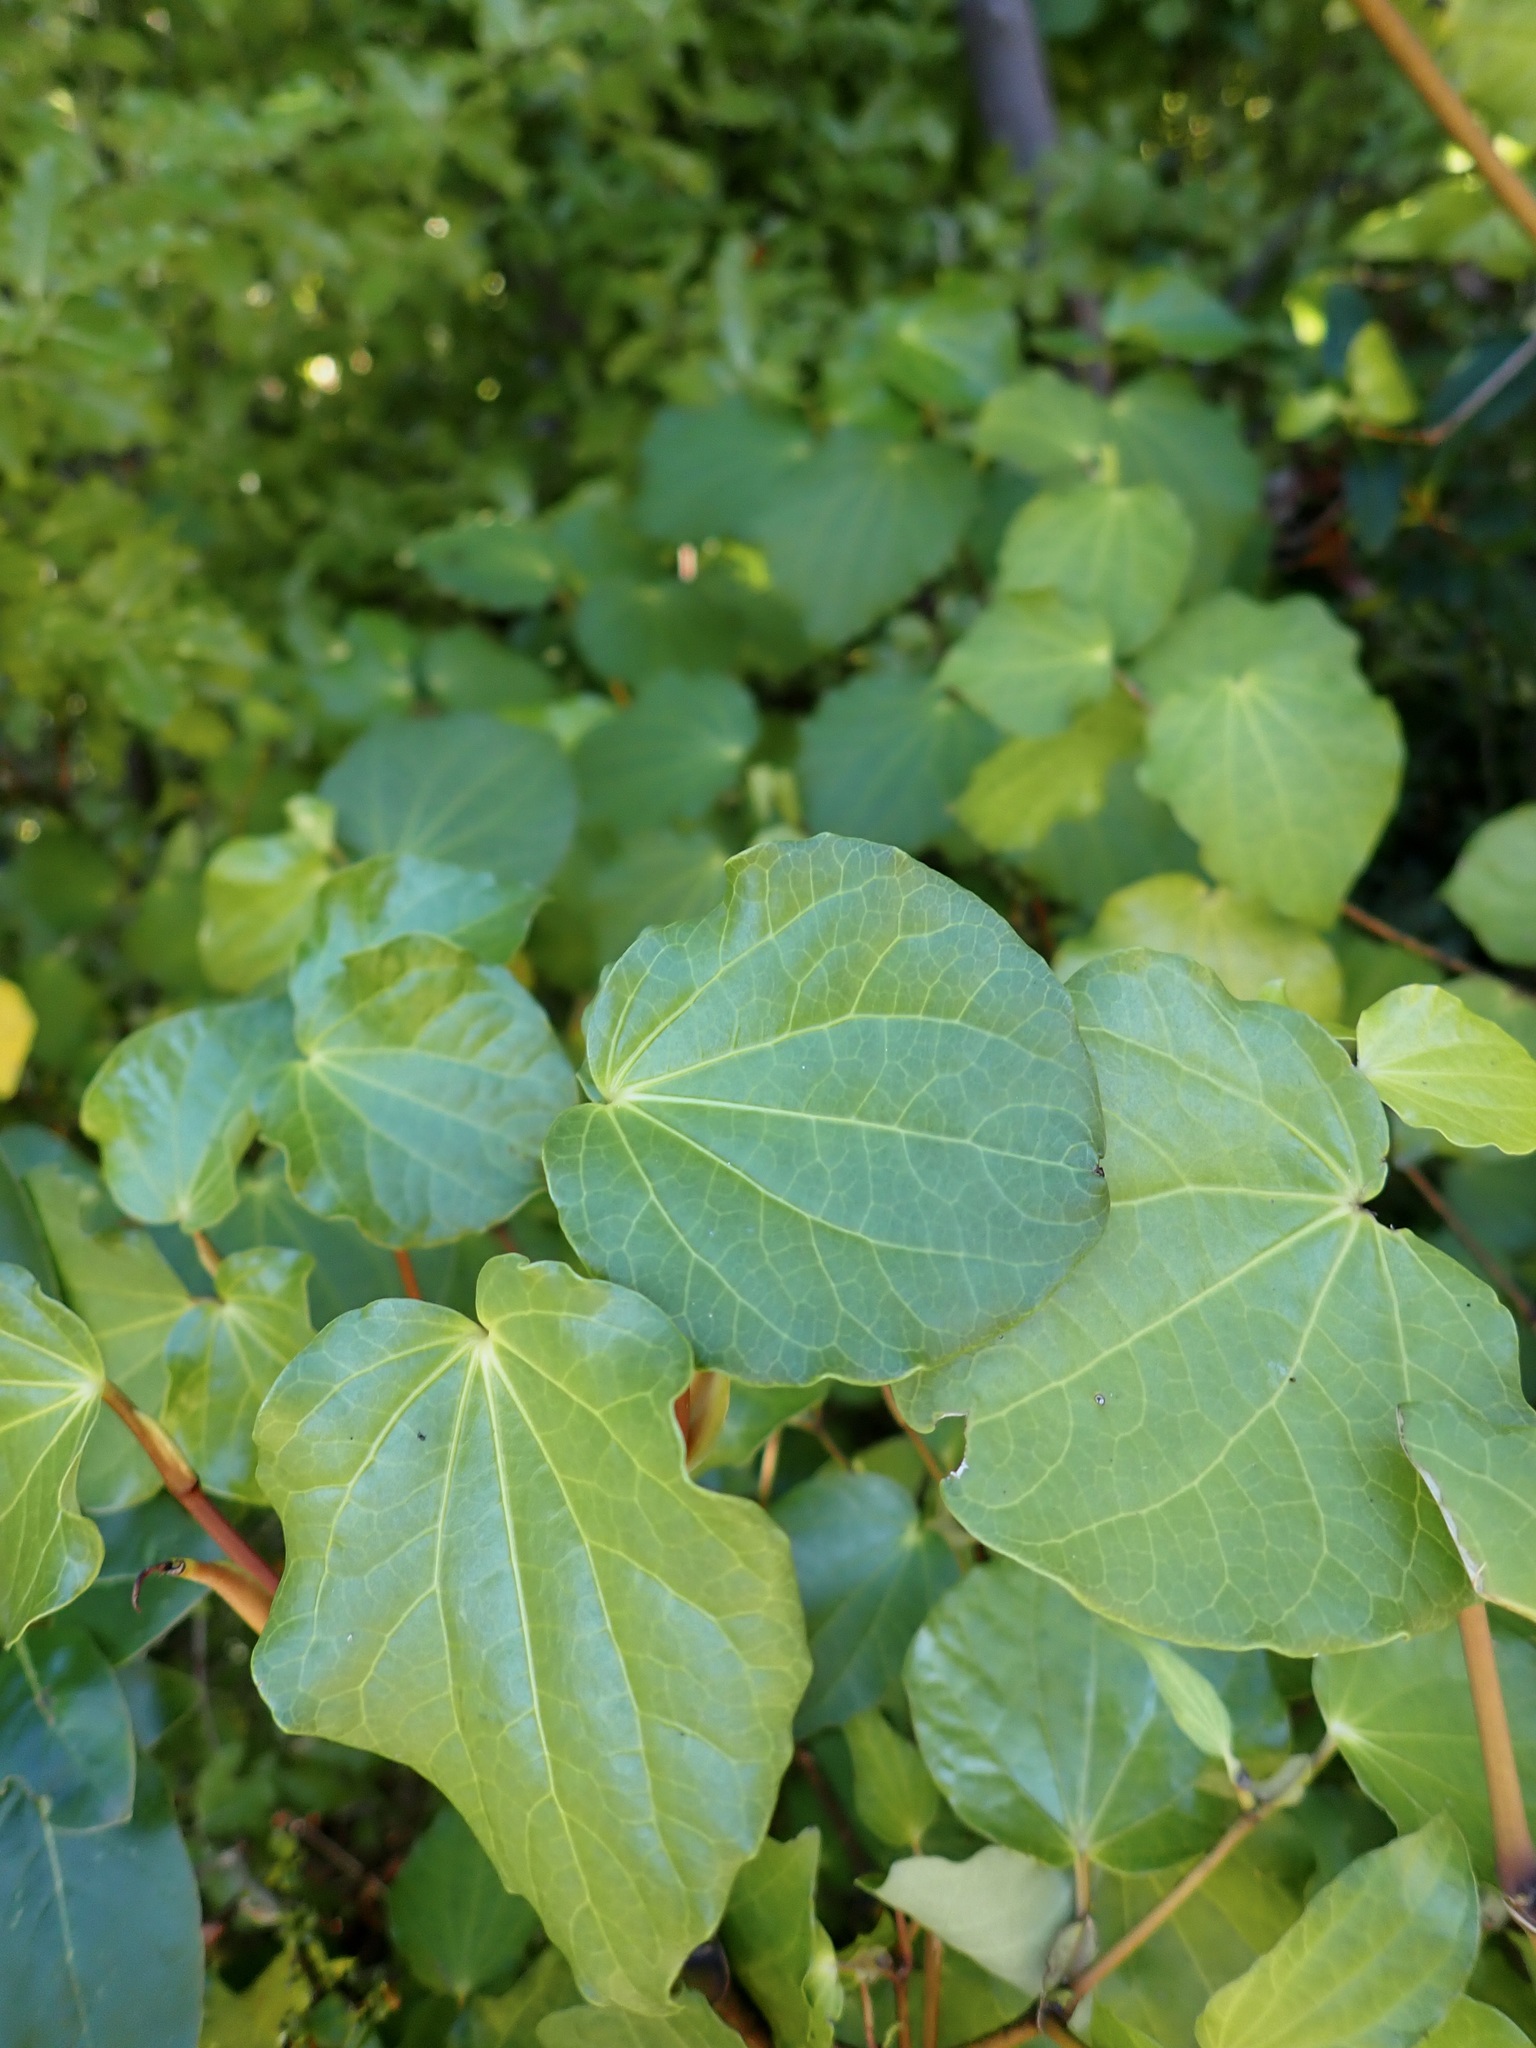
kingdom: Plantae
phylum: Tracheophyta
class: Magnoliopsida
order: Piperales
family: Piperaceae
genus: Macropiper
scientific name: Macropiper excelsum
